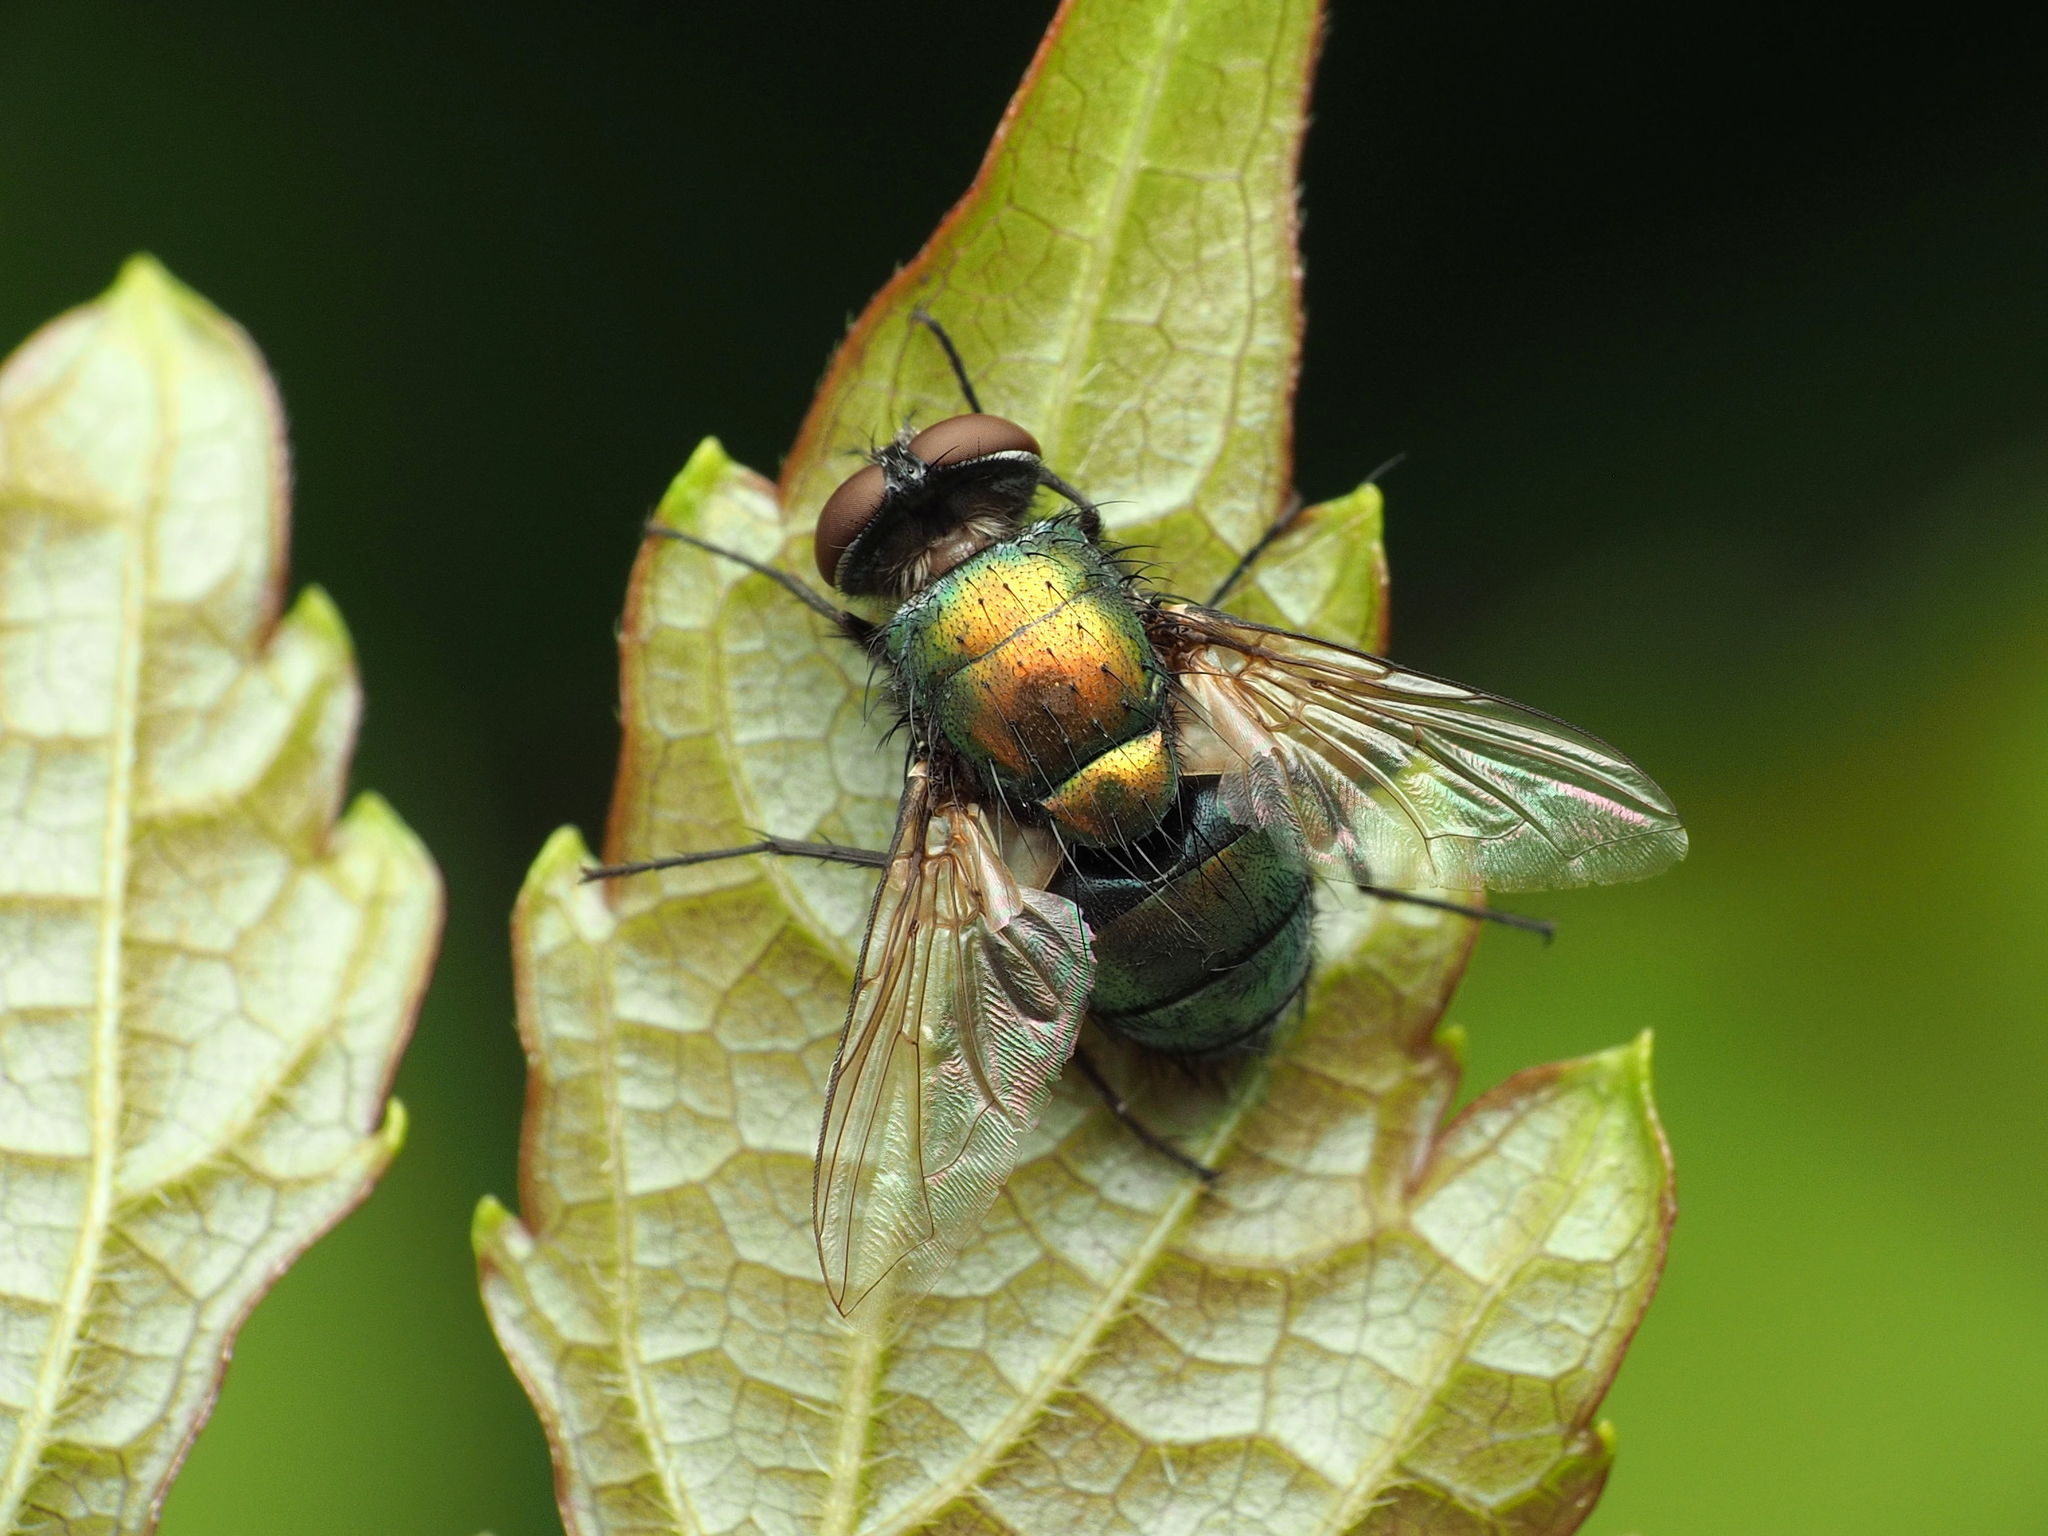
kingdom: Animalia
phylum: Arthropoda
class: Insecta
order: Diptera
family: Calliphoridae
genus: Lucilia
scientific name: Lucilia sericata
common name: Blow fly
